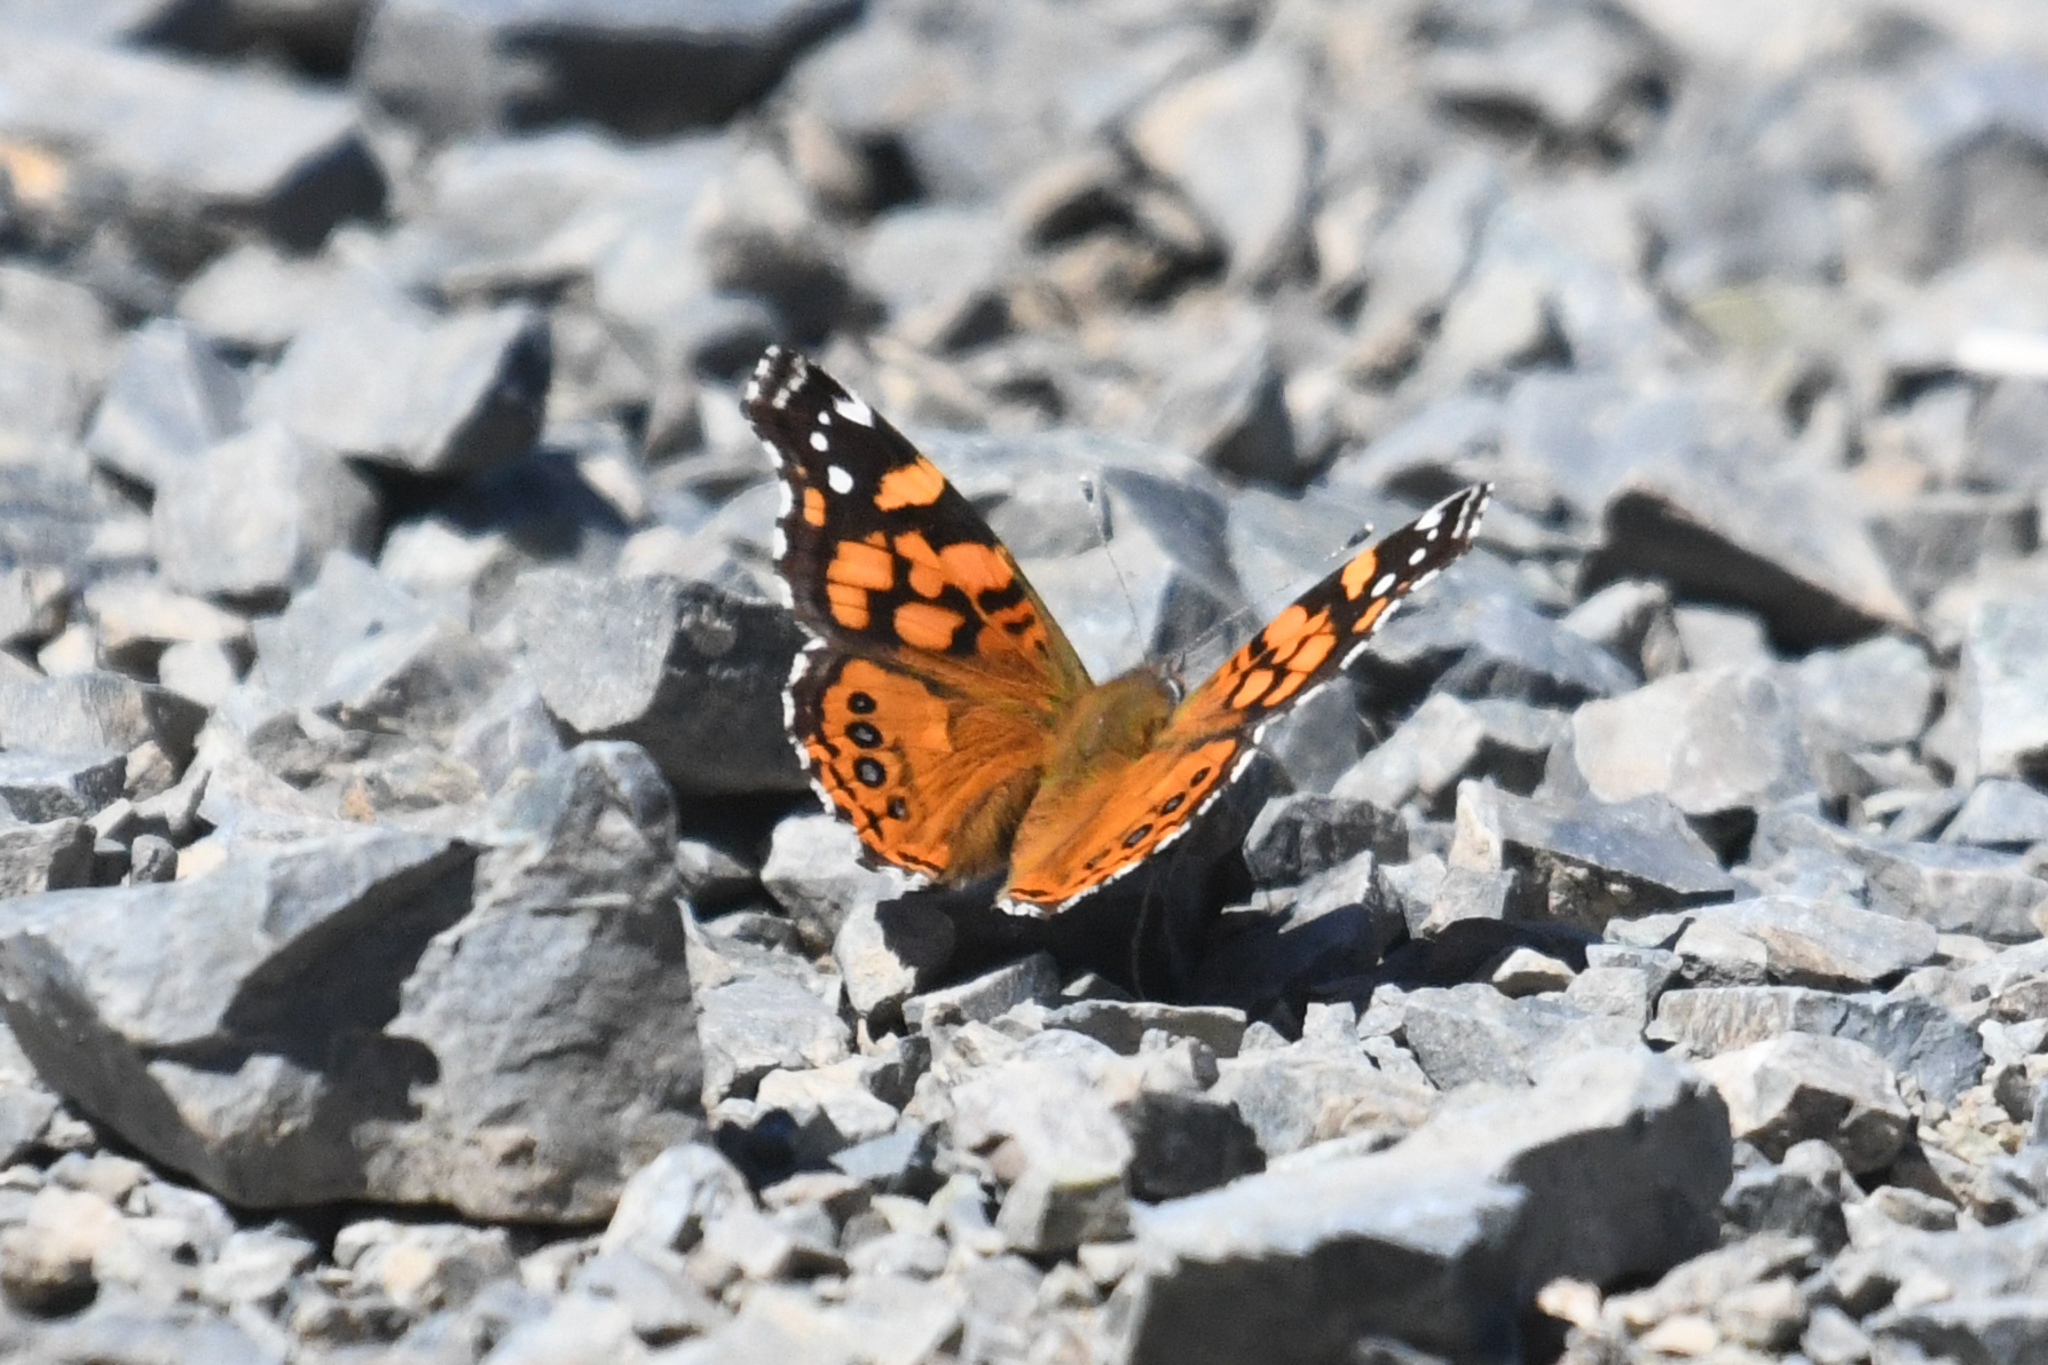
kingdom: Animalia
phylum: Arthropoda
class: Insecta
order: Lepidoptera
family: Nymphalidae
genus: Vanessa
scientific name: Vanessa annabella
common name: West coast lady
